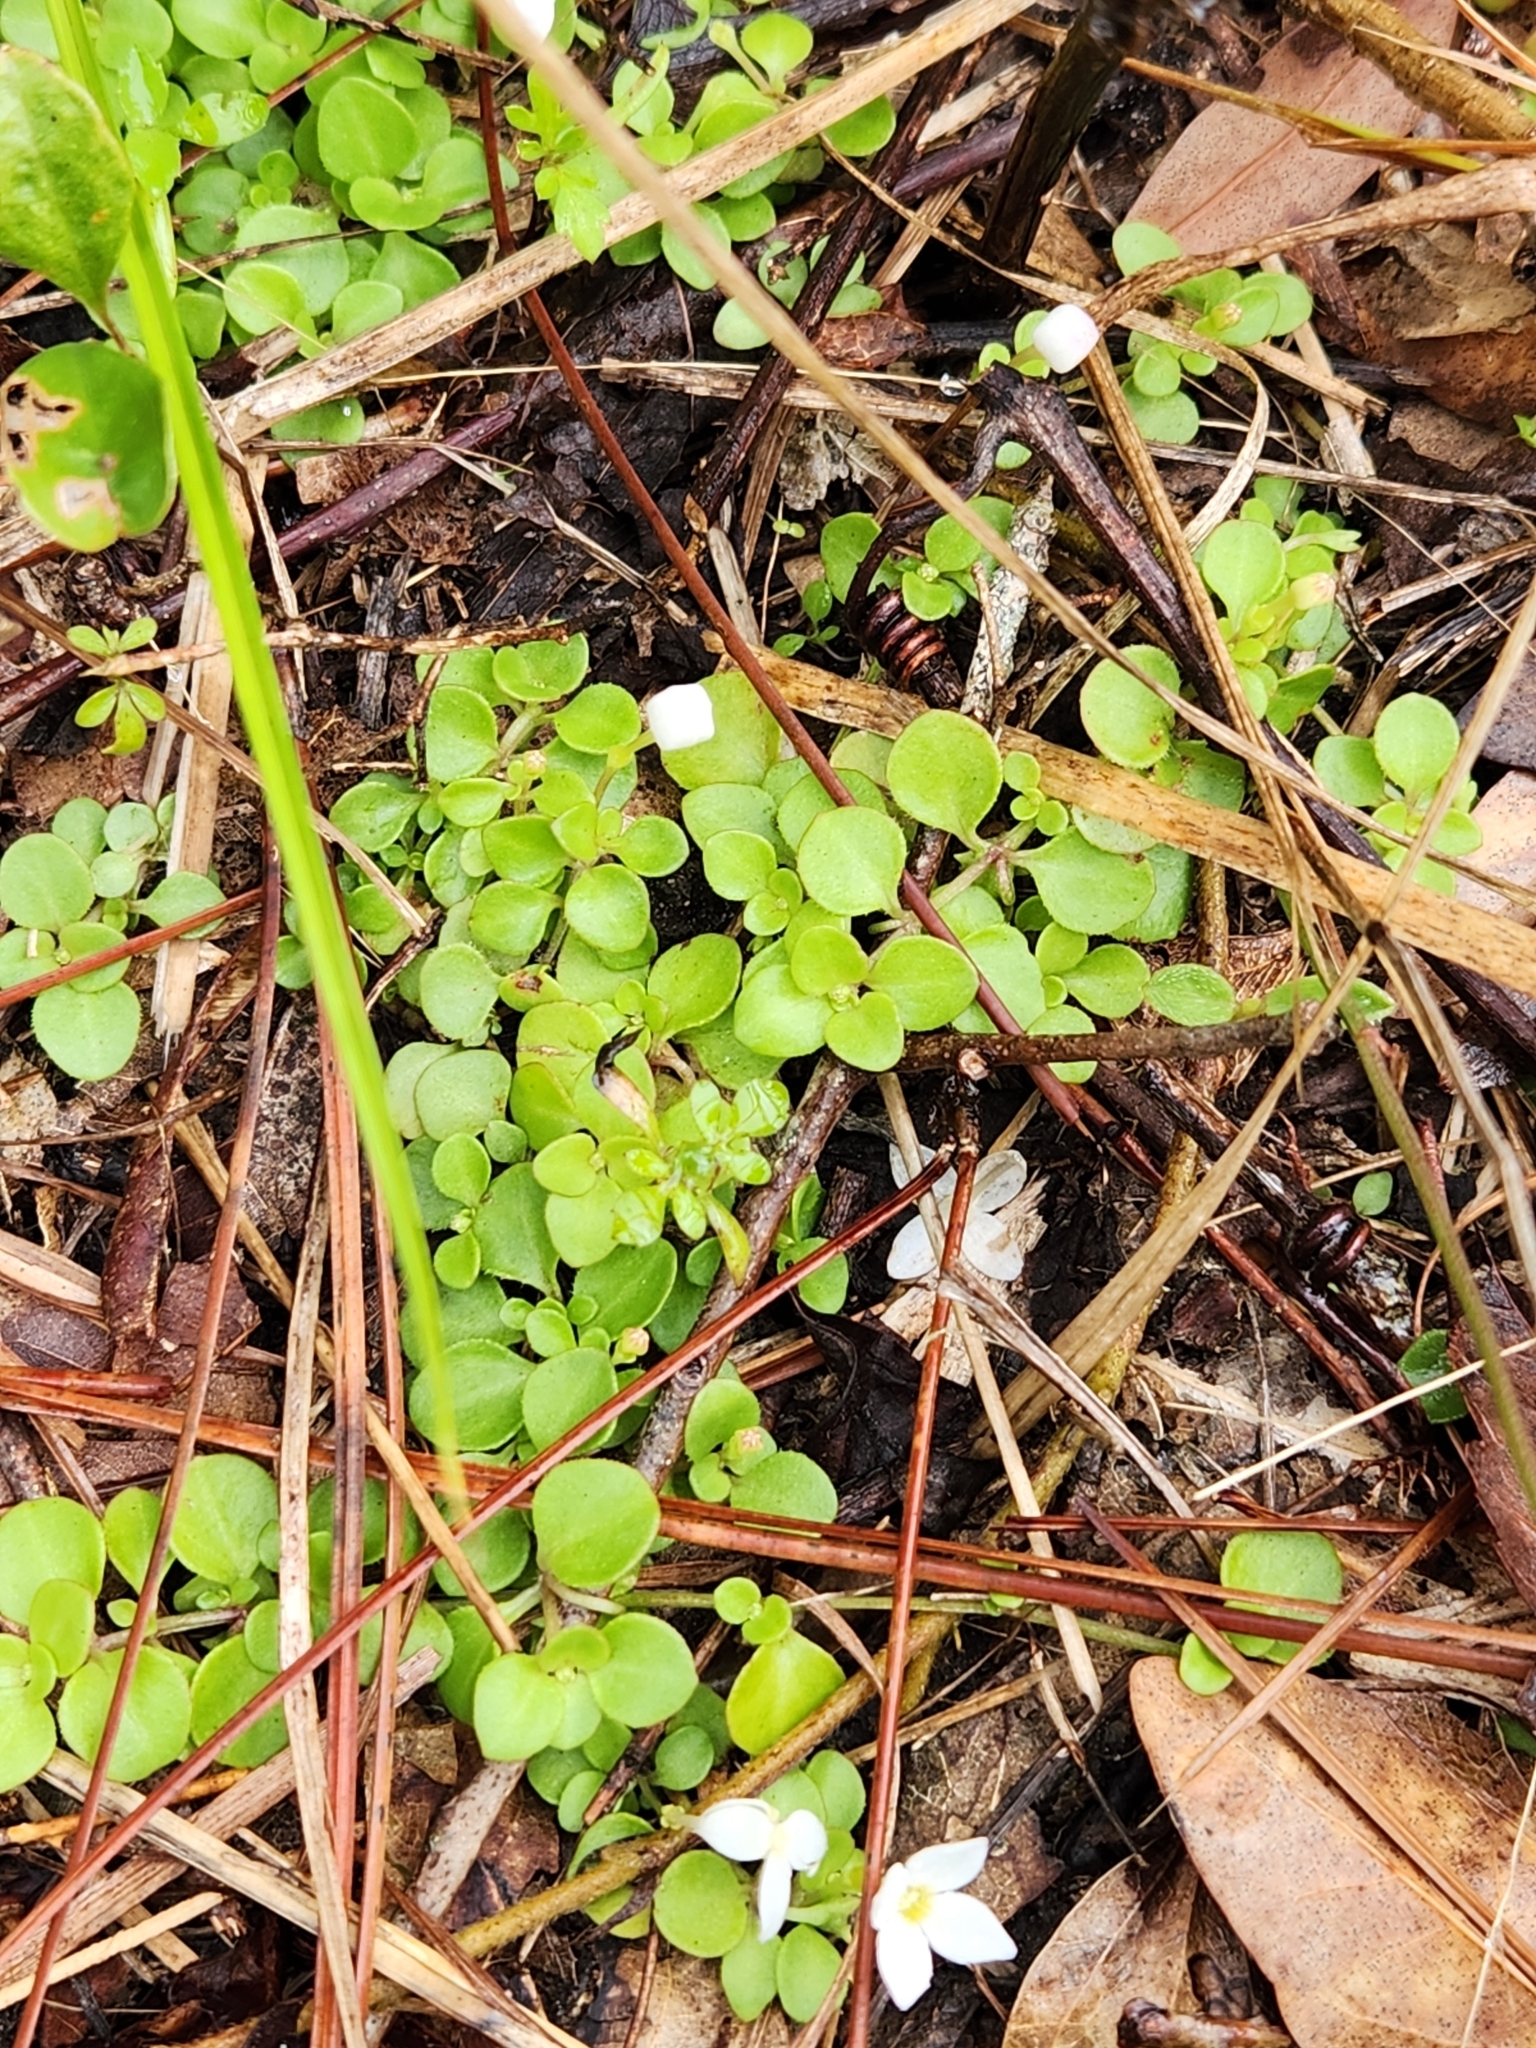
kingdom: Plantae
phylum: Tracheophyta
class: Magnoliopsida
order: Gentianales
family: Rubiaceae
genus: Houstonia
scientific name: Houstonia procumbens
